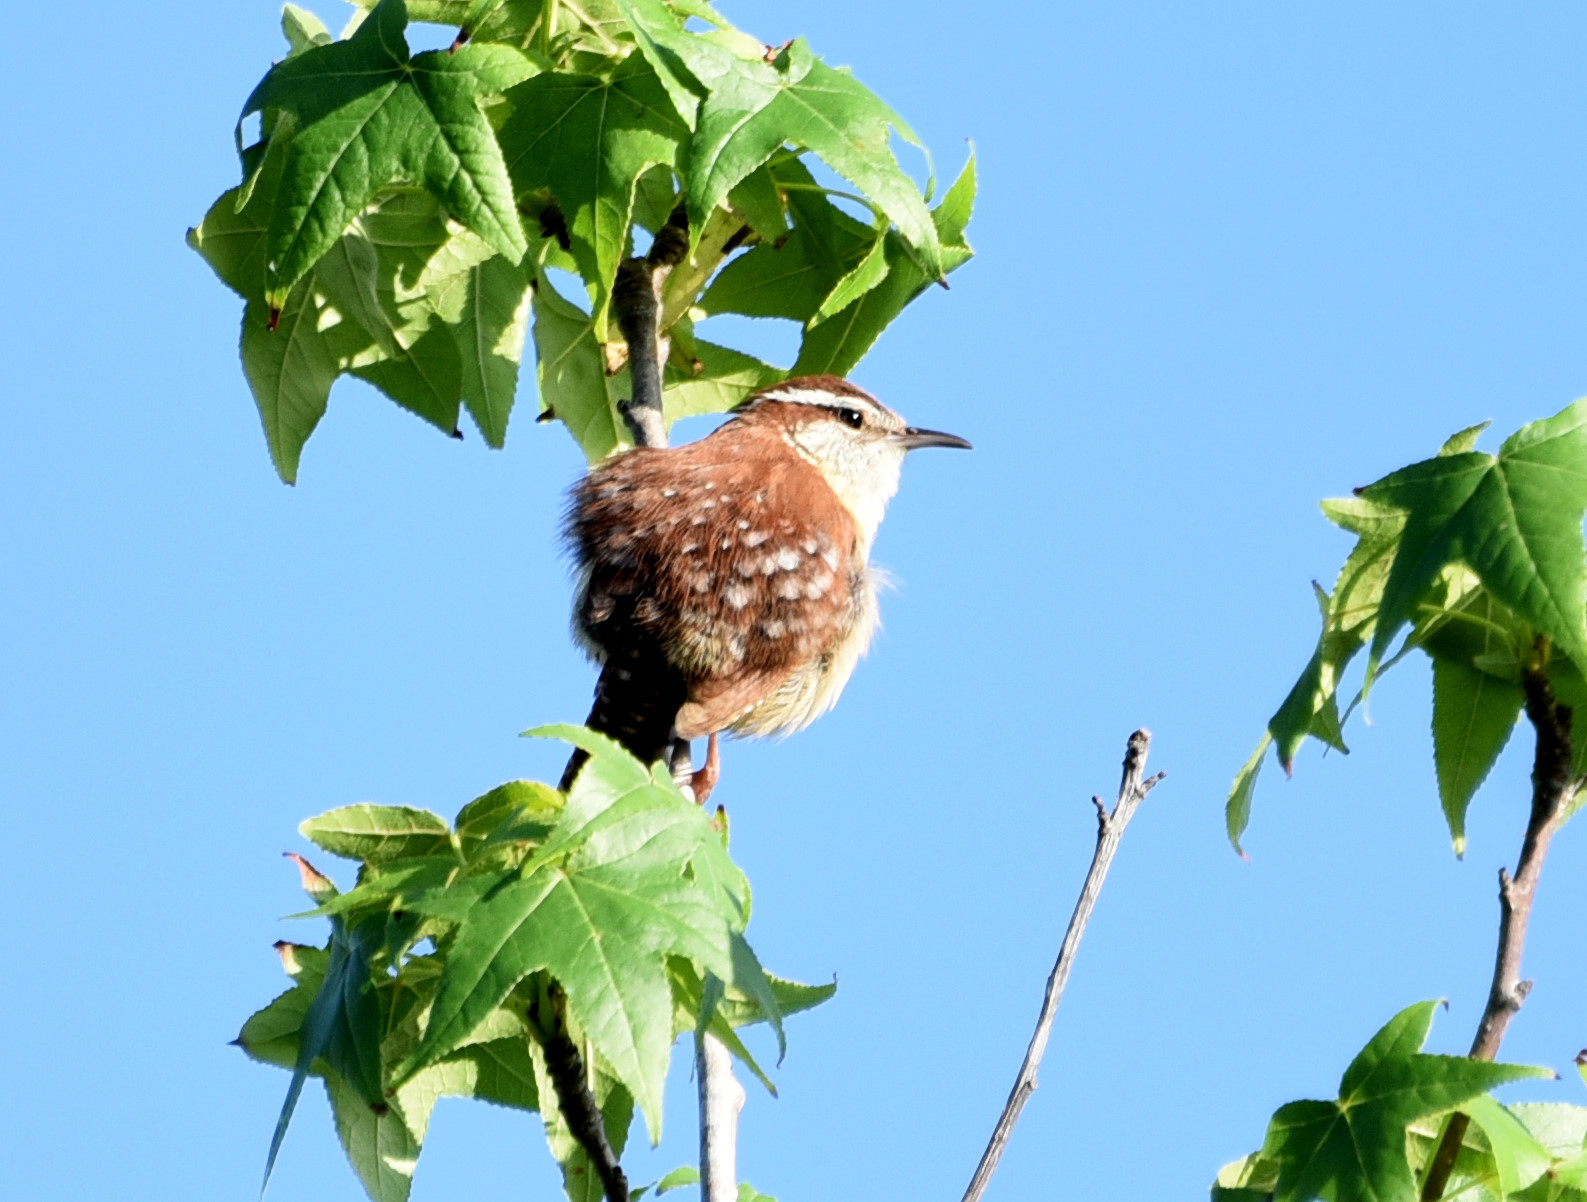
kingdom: Animalia
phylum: Chordata
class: Aves
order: Passeriformes
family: Troglodytidae
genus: Thryothorus
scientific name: Thryothorus ludovicianus
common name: Carolina wren
